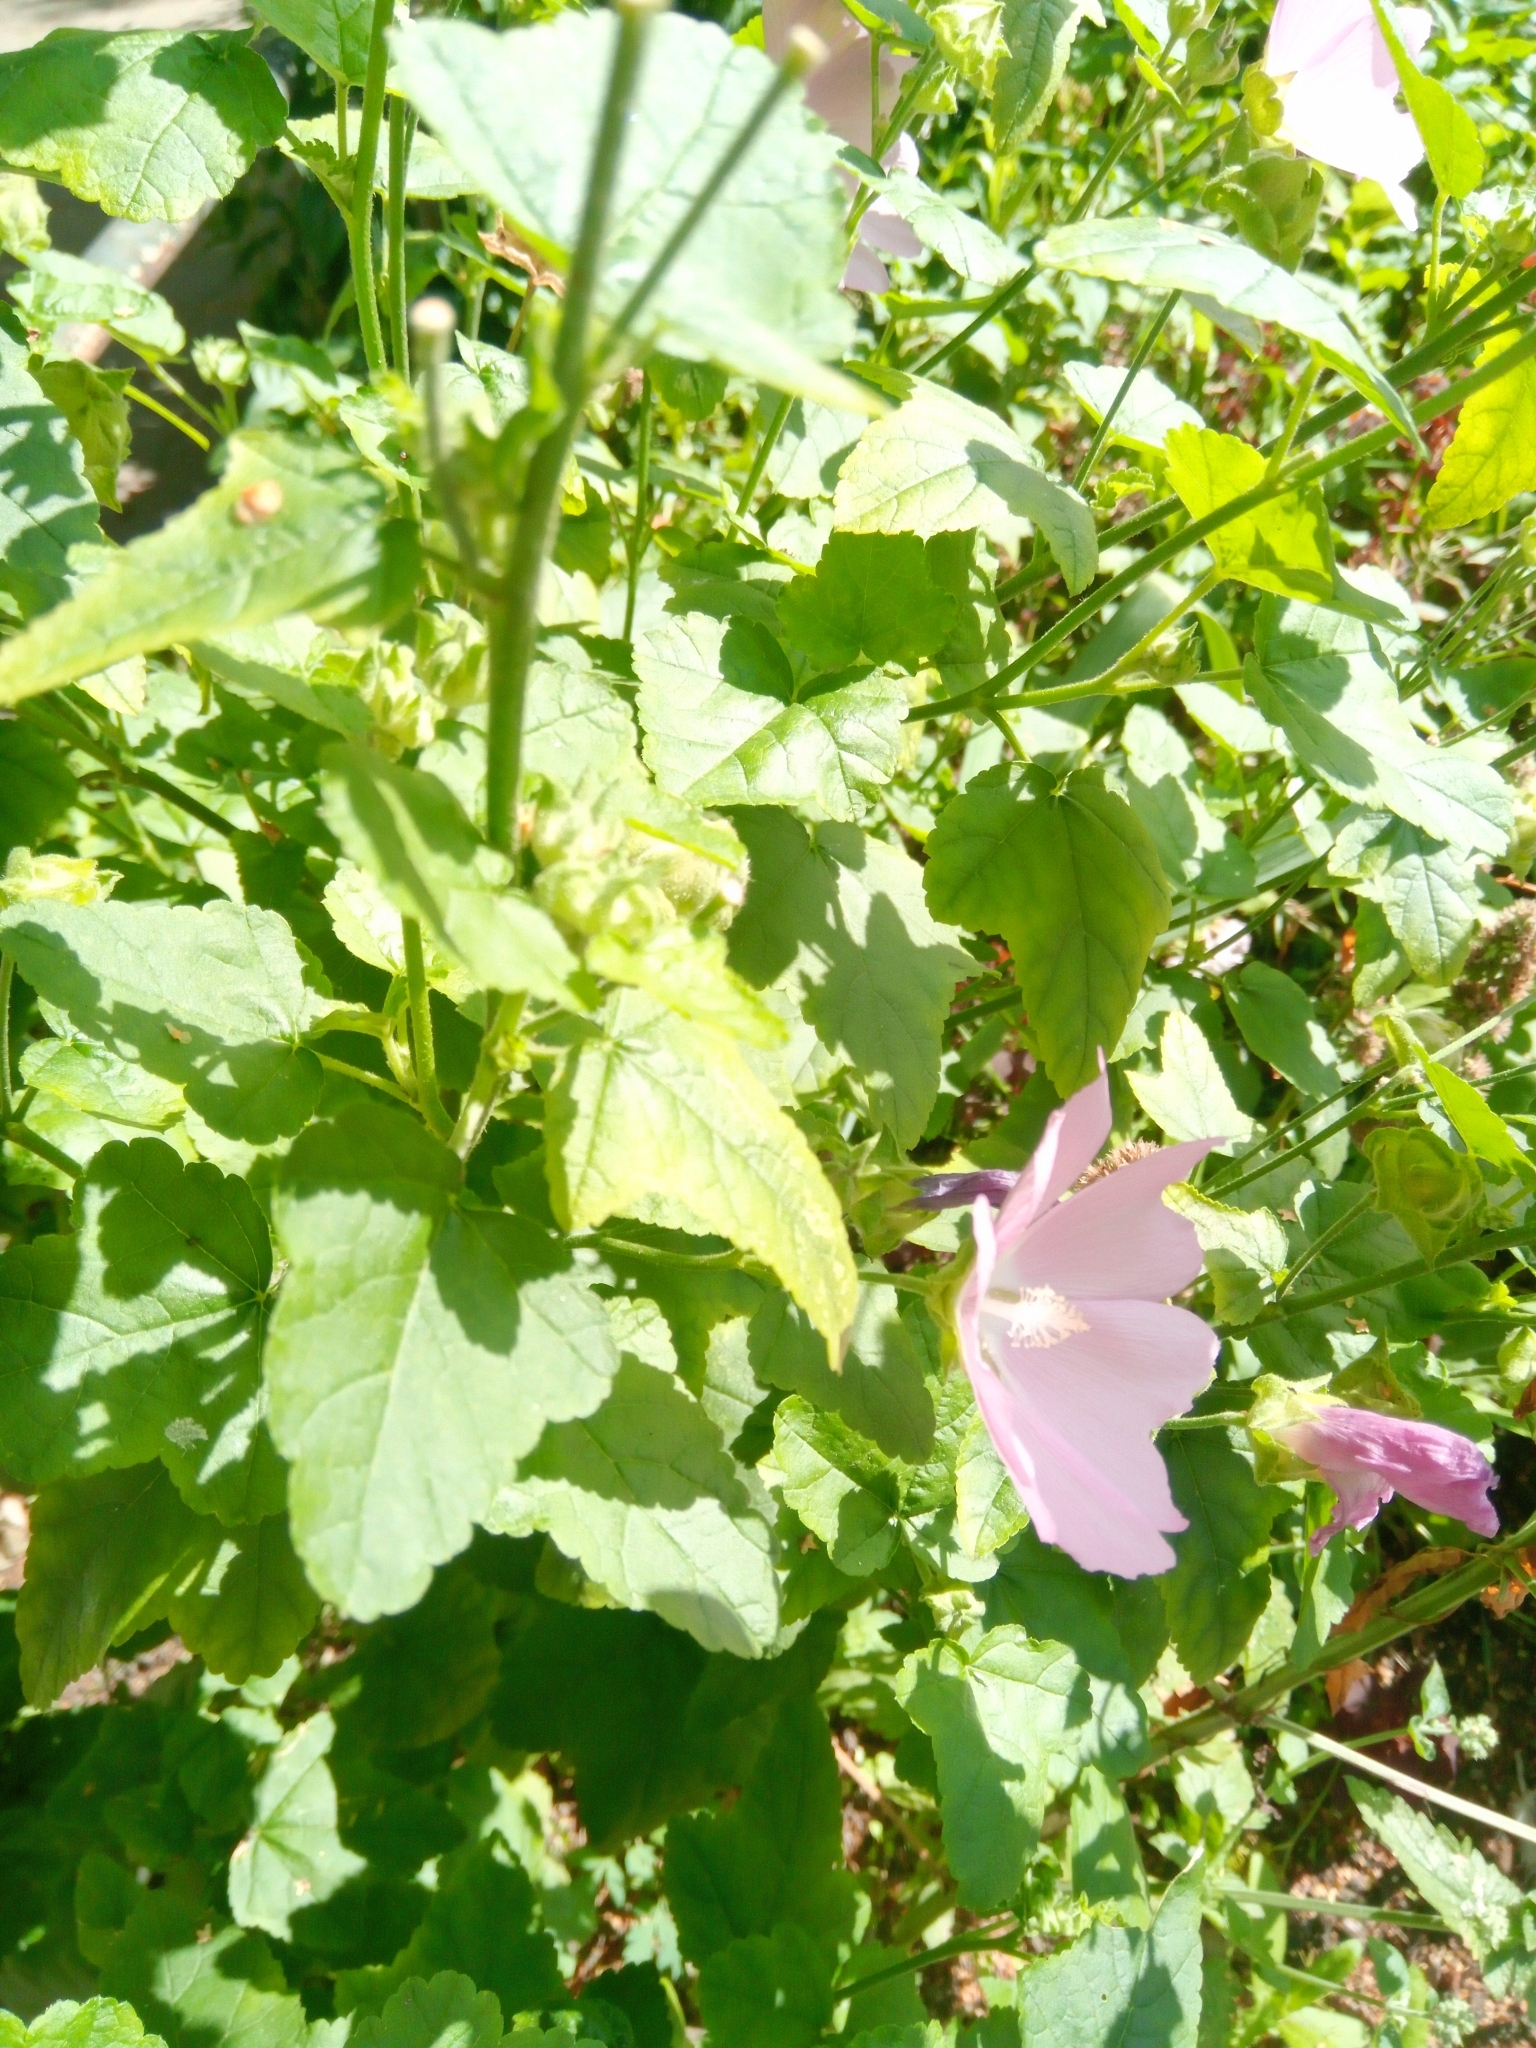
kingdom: Plantae
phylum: Tracheophyta
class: Magnoliopsida
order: Malvales
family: Malvaceae
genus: Malva
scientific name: Malva thuringiaca
